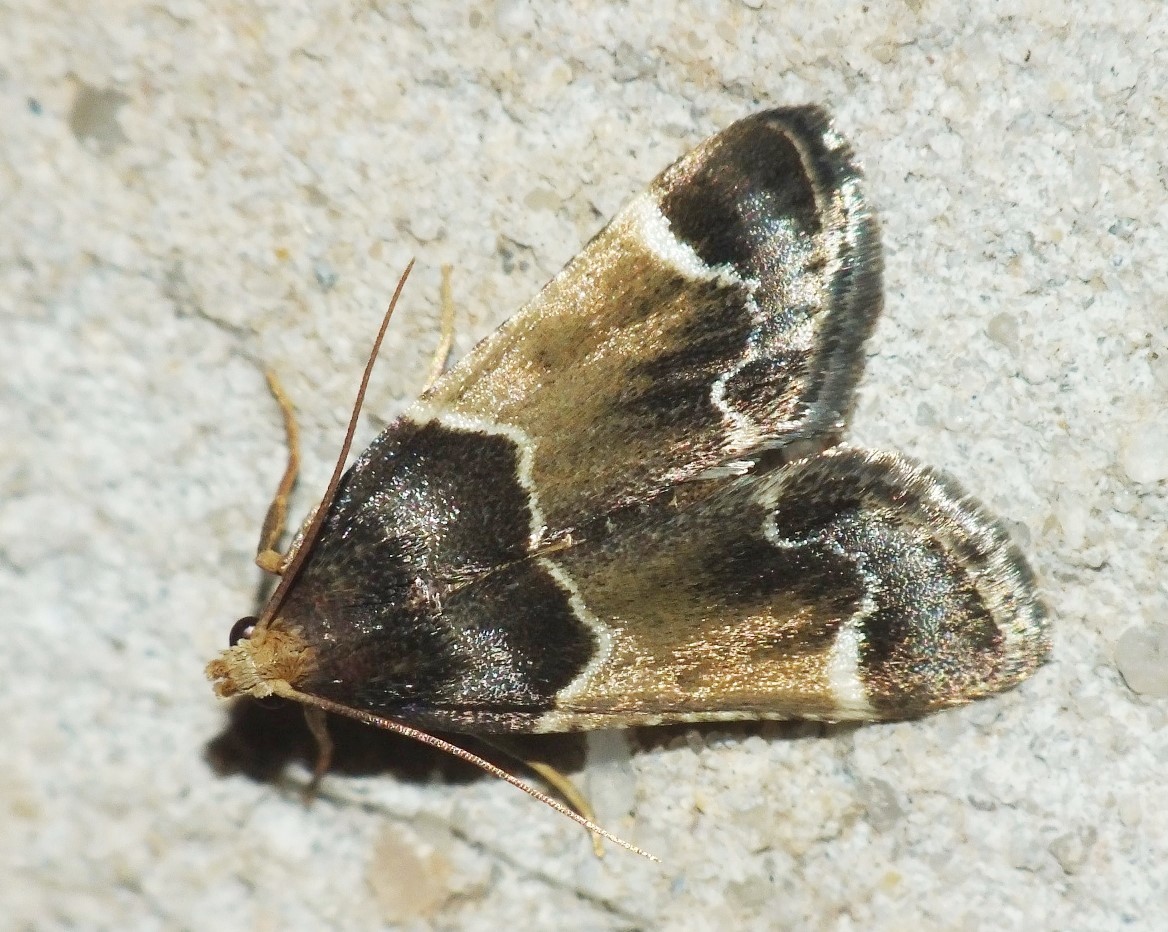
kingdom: Animalia
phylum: Arthropoda
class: Insecta
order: Lepidoptera
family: Pyralidae
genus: Pyralis
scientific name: Pyralis farinalis
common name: Meal moth
